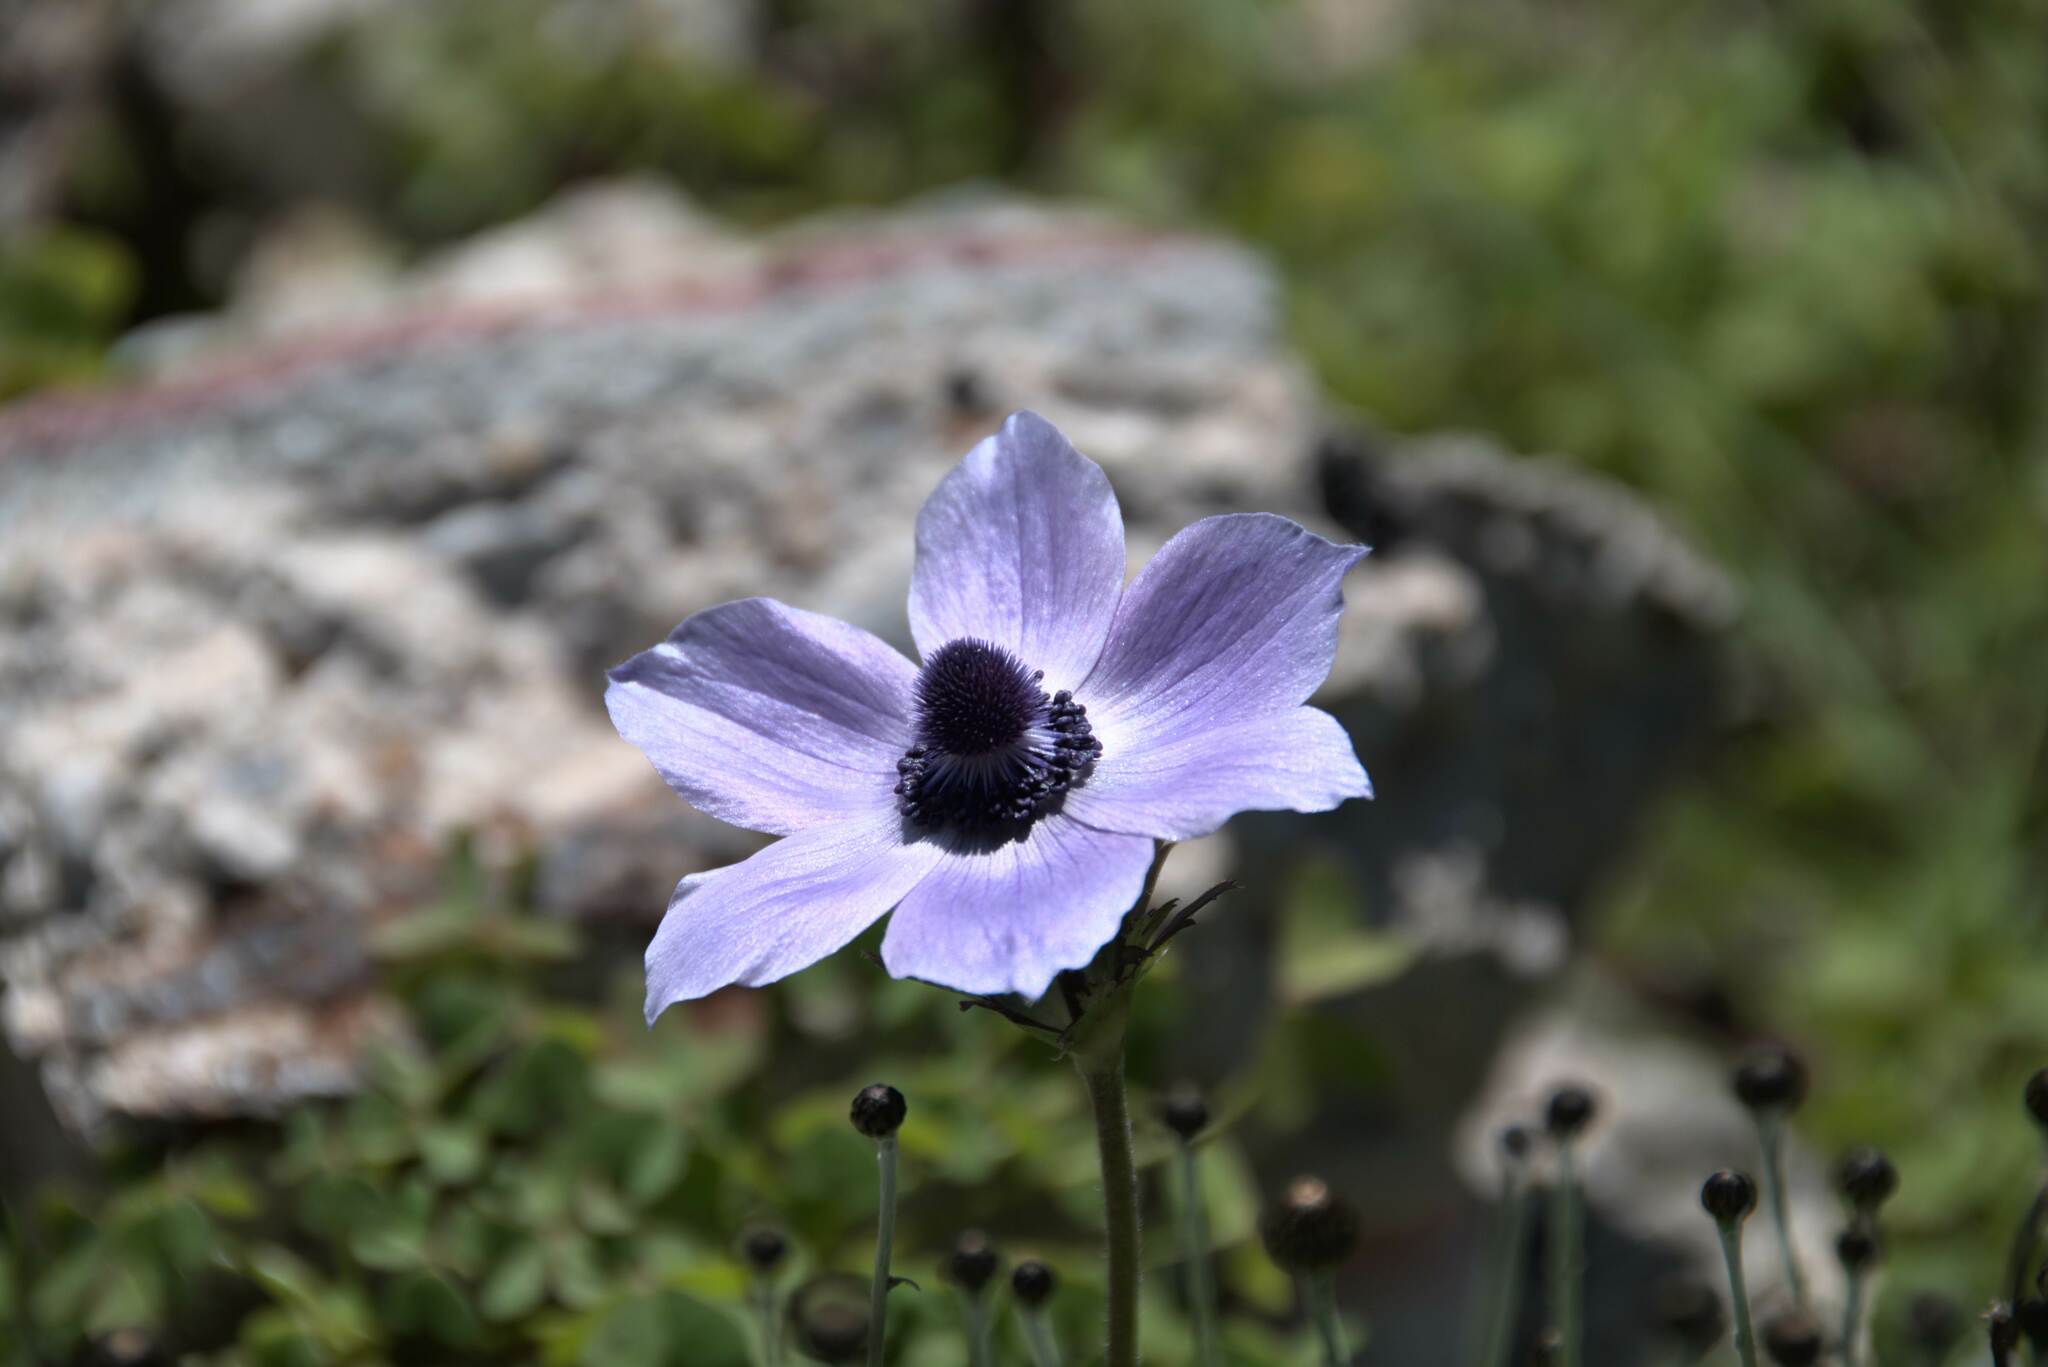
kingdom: Plantae
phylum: Tracheophyta
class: Magnoliopsida
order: Ranunculales
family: Ranunculaceae
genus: Anemone
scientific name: Anemone coronaria
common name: Poppy anemone
